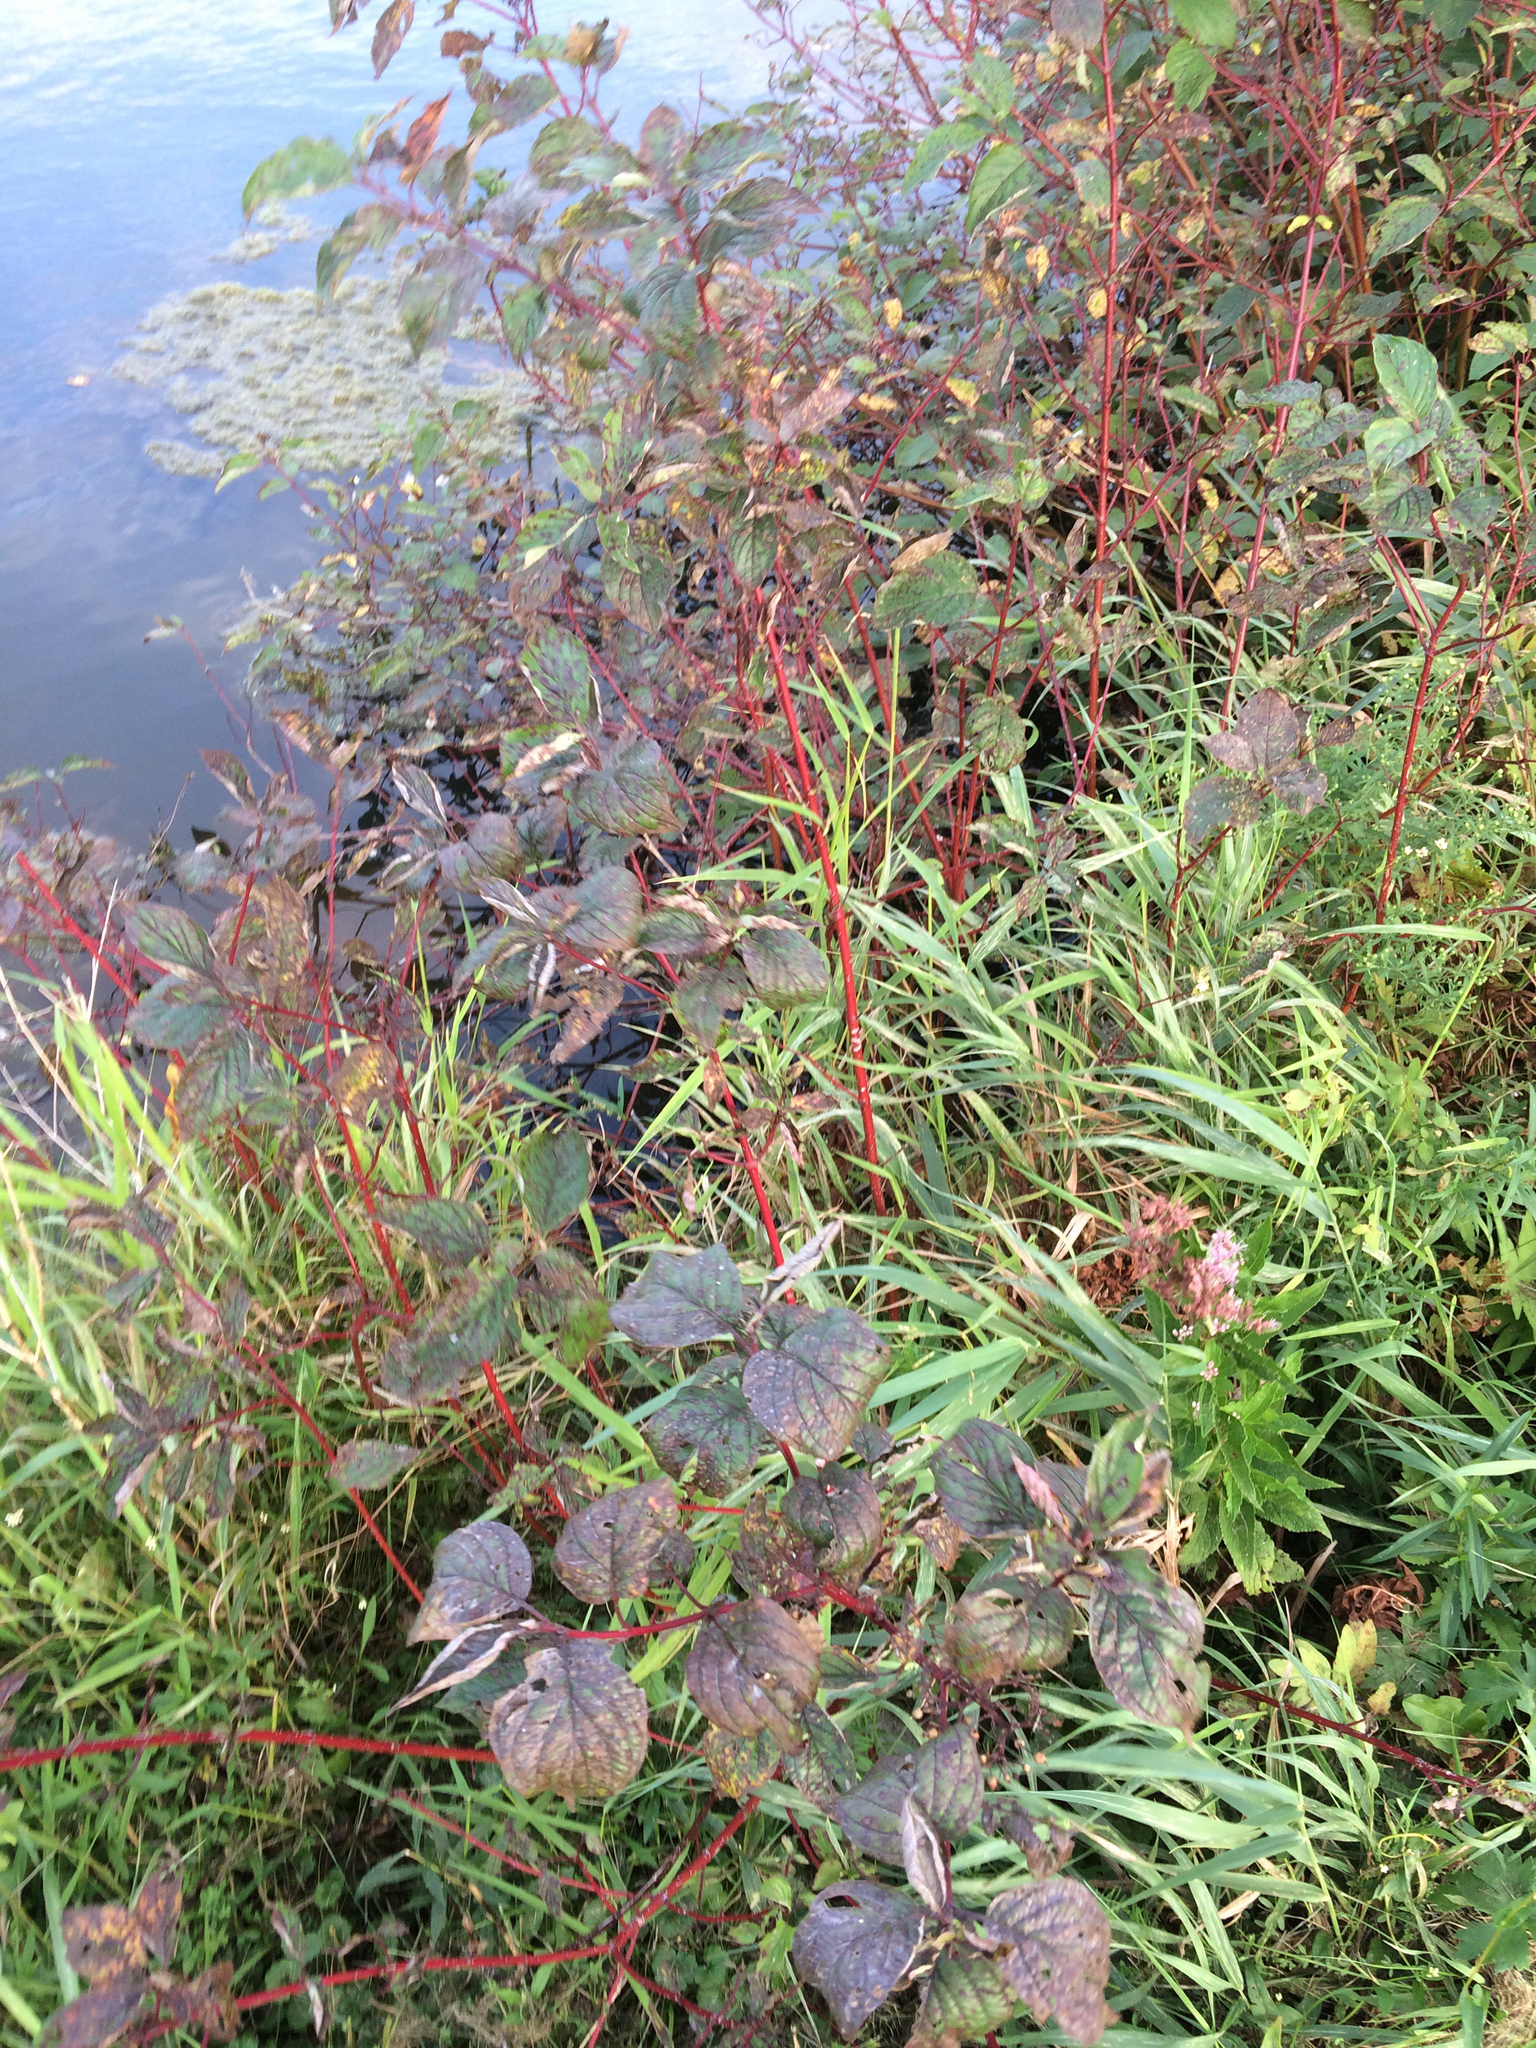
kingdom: Plantae
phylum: Tracheophyta
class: Magnoliopsida
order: Cornales
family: Cornaceae
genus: Cornus
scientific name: Cornus sericea
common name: Red-osier dogwood
